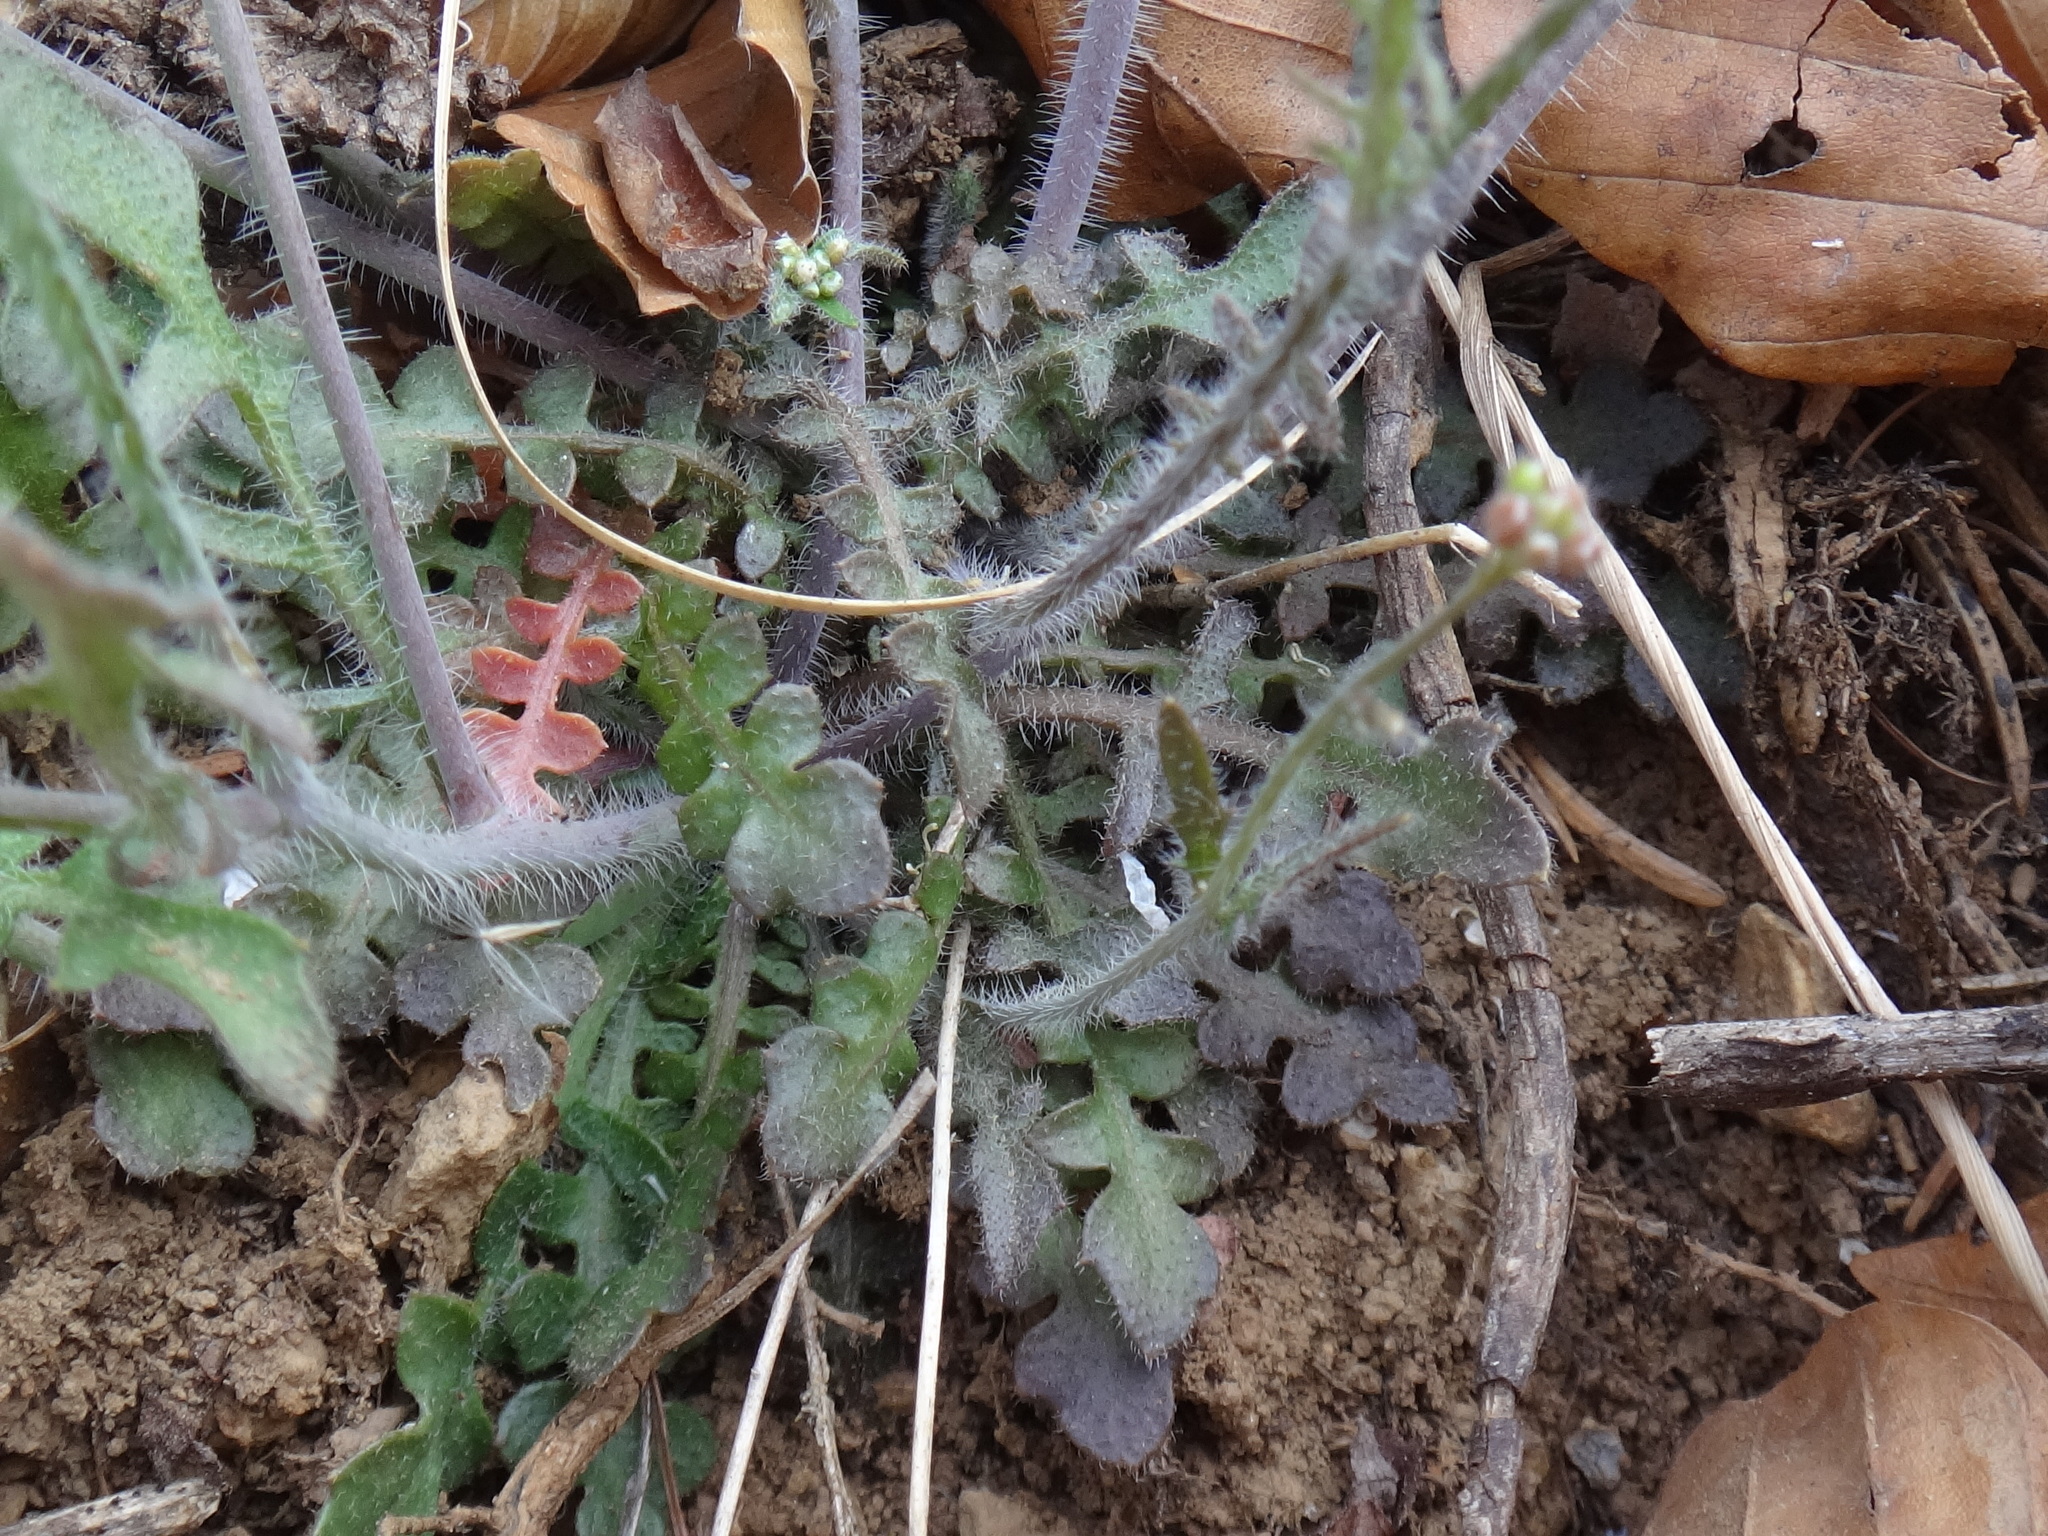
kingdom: Plantae
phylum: Tracheophyta
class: Magnoliopsida
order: Brassicales
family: Brassicaceae
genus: Arabidopsis
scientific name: Arabidopsis arenosa
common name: Sand rock-cress
